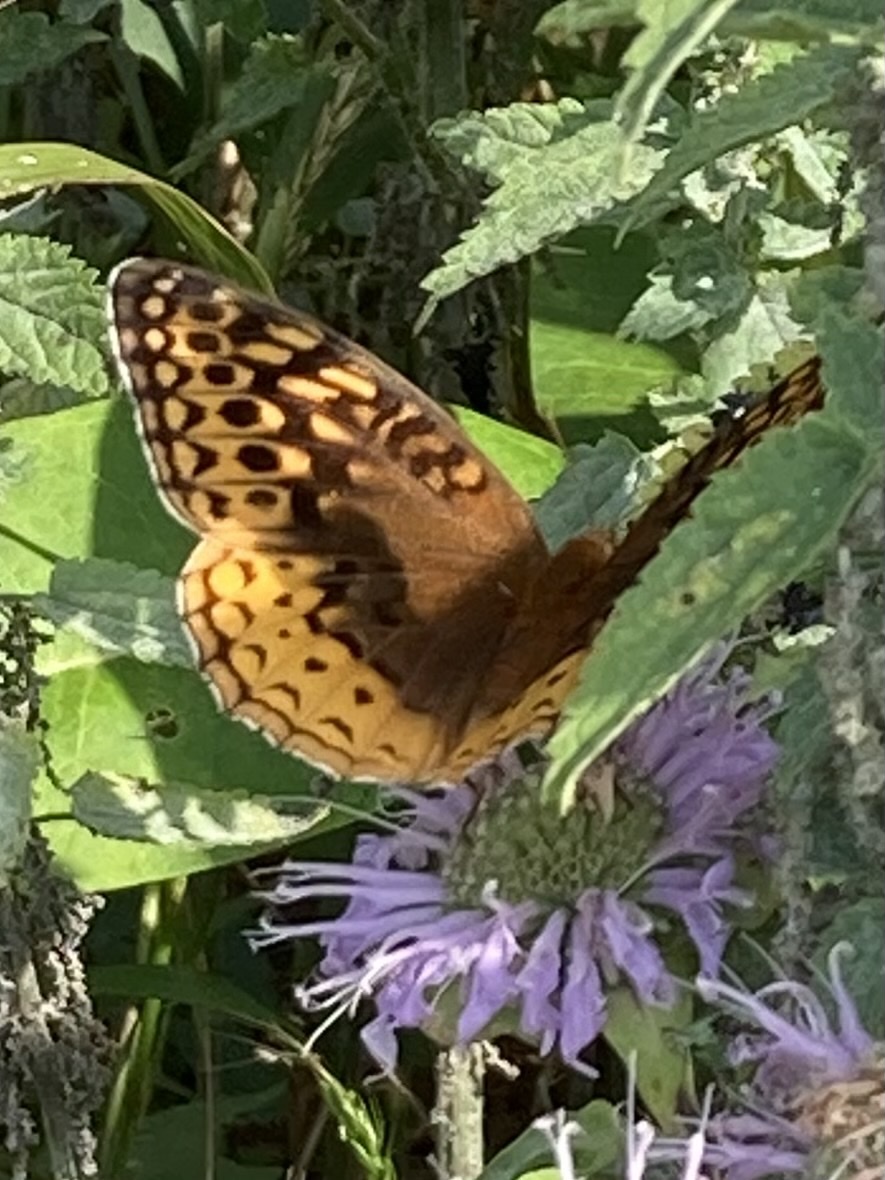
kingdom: Animalia
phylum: Arthropoda
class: Insecta
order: Lepidoptera
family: Nymphalidae
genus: Speyeria
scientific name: Speyeria cybele
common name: Great spangled fritillary
